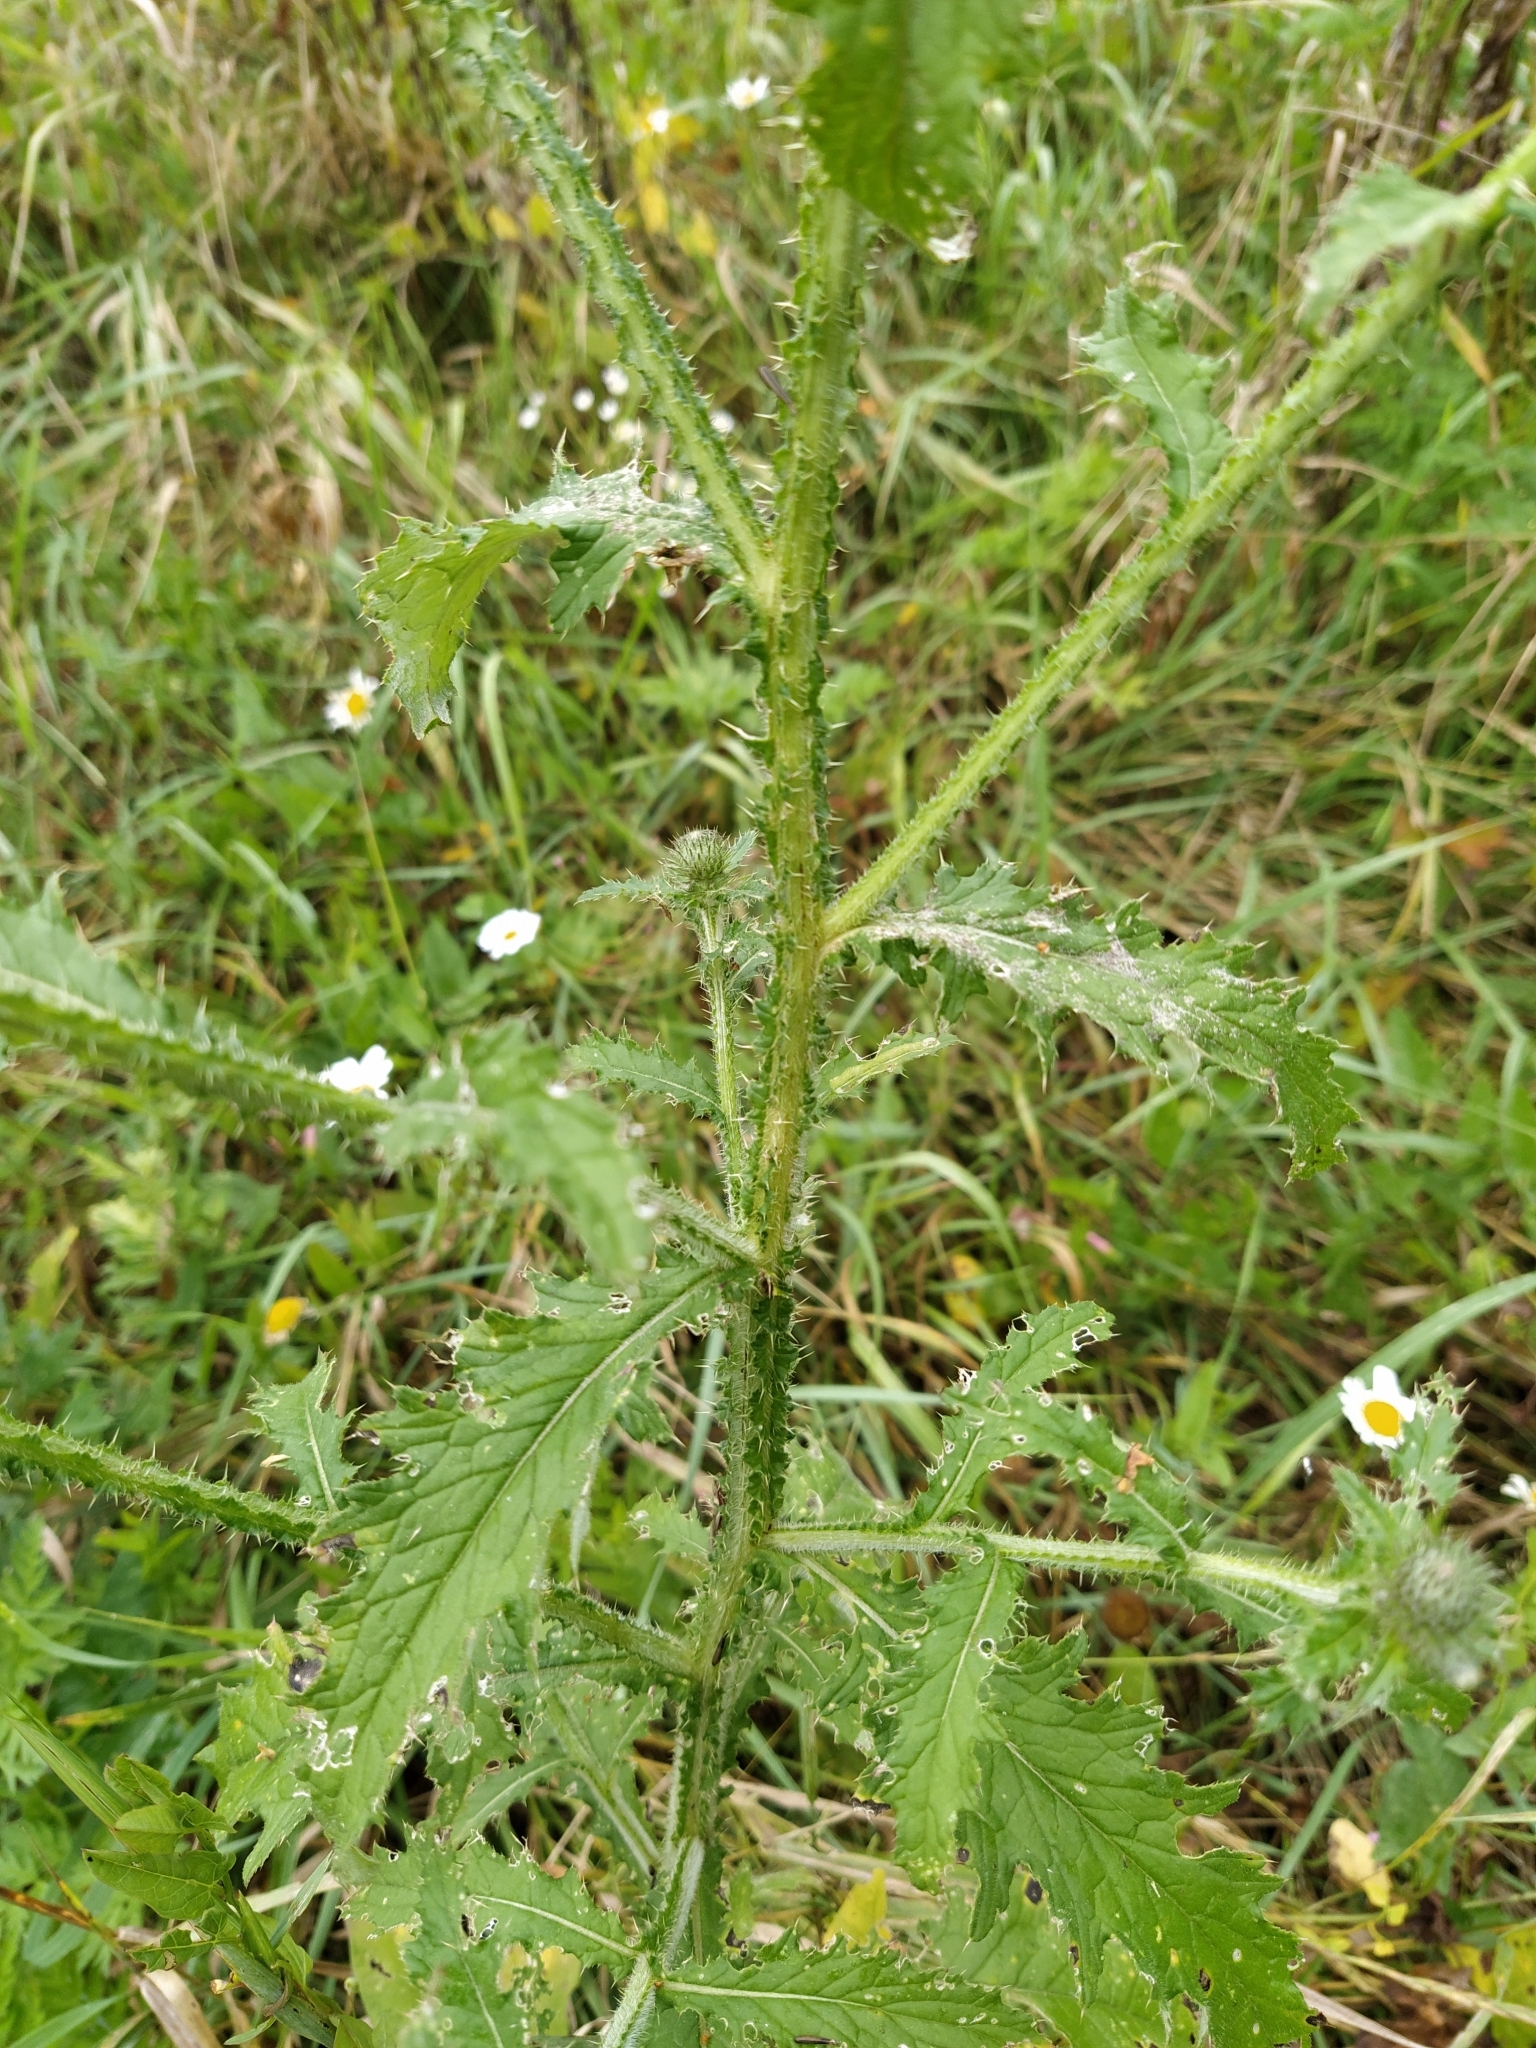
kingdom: Plantae
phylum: Tracheophyta
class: Magnoliopsida
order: Asterales
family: Asteraceae
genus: Carduus
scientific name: Carduus crispus
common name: Welted thistle
